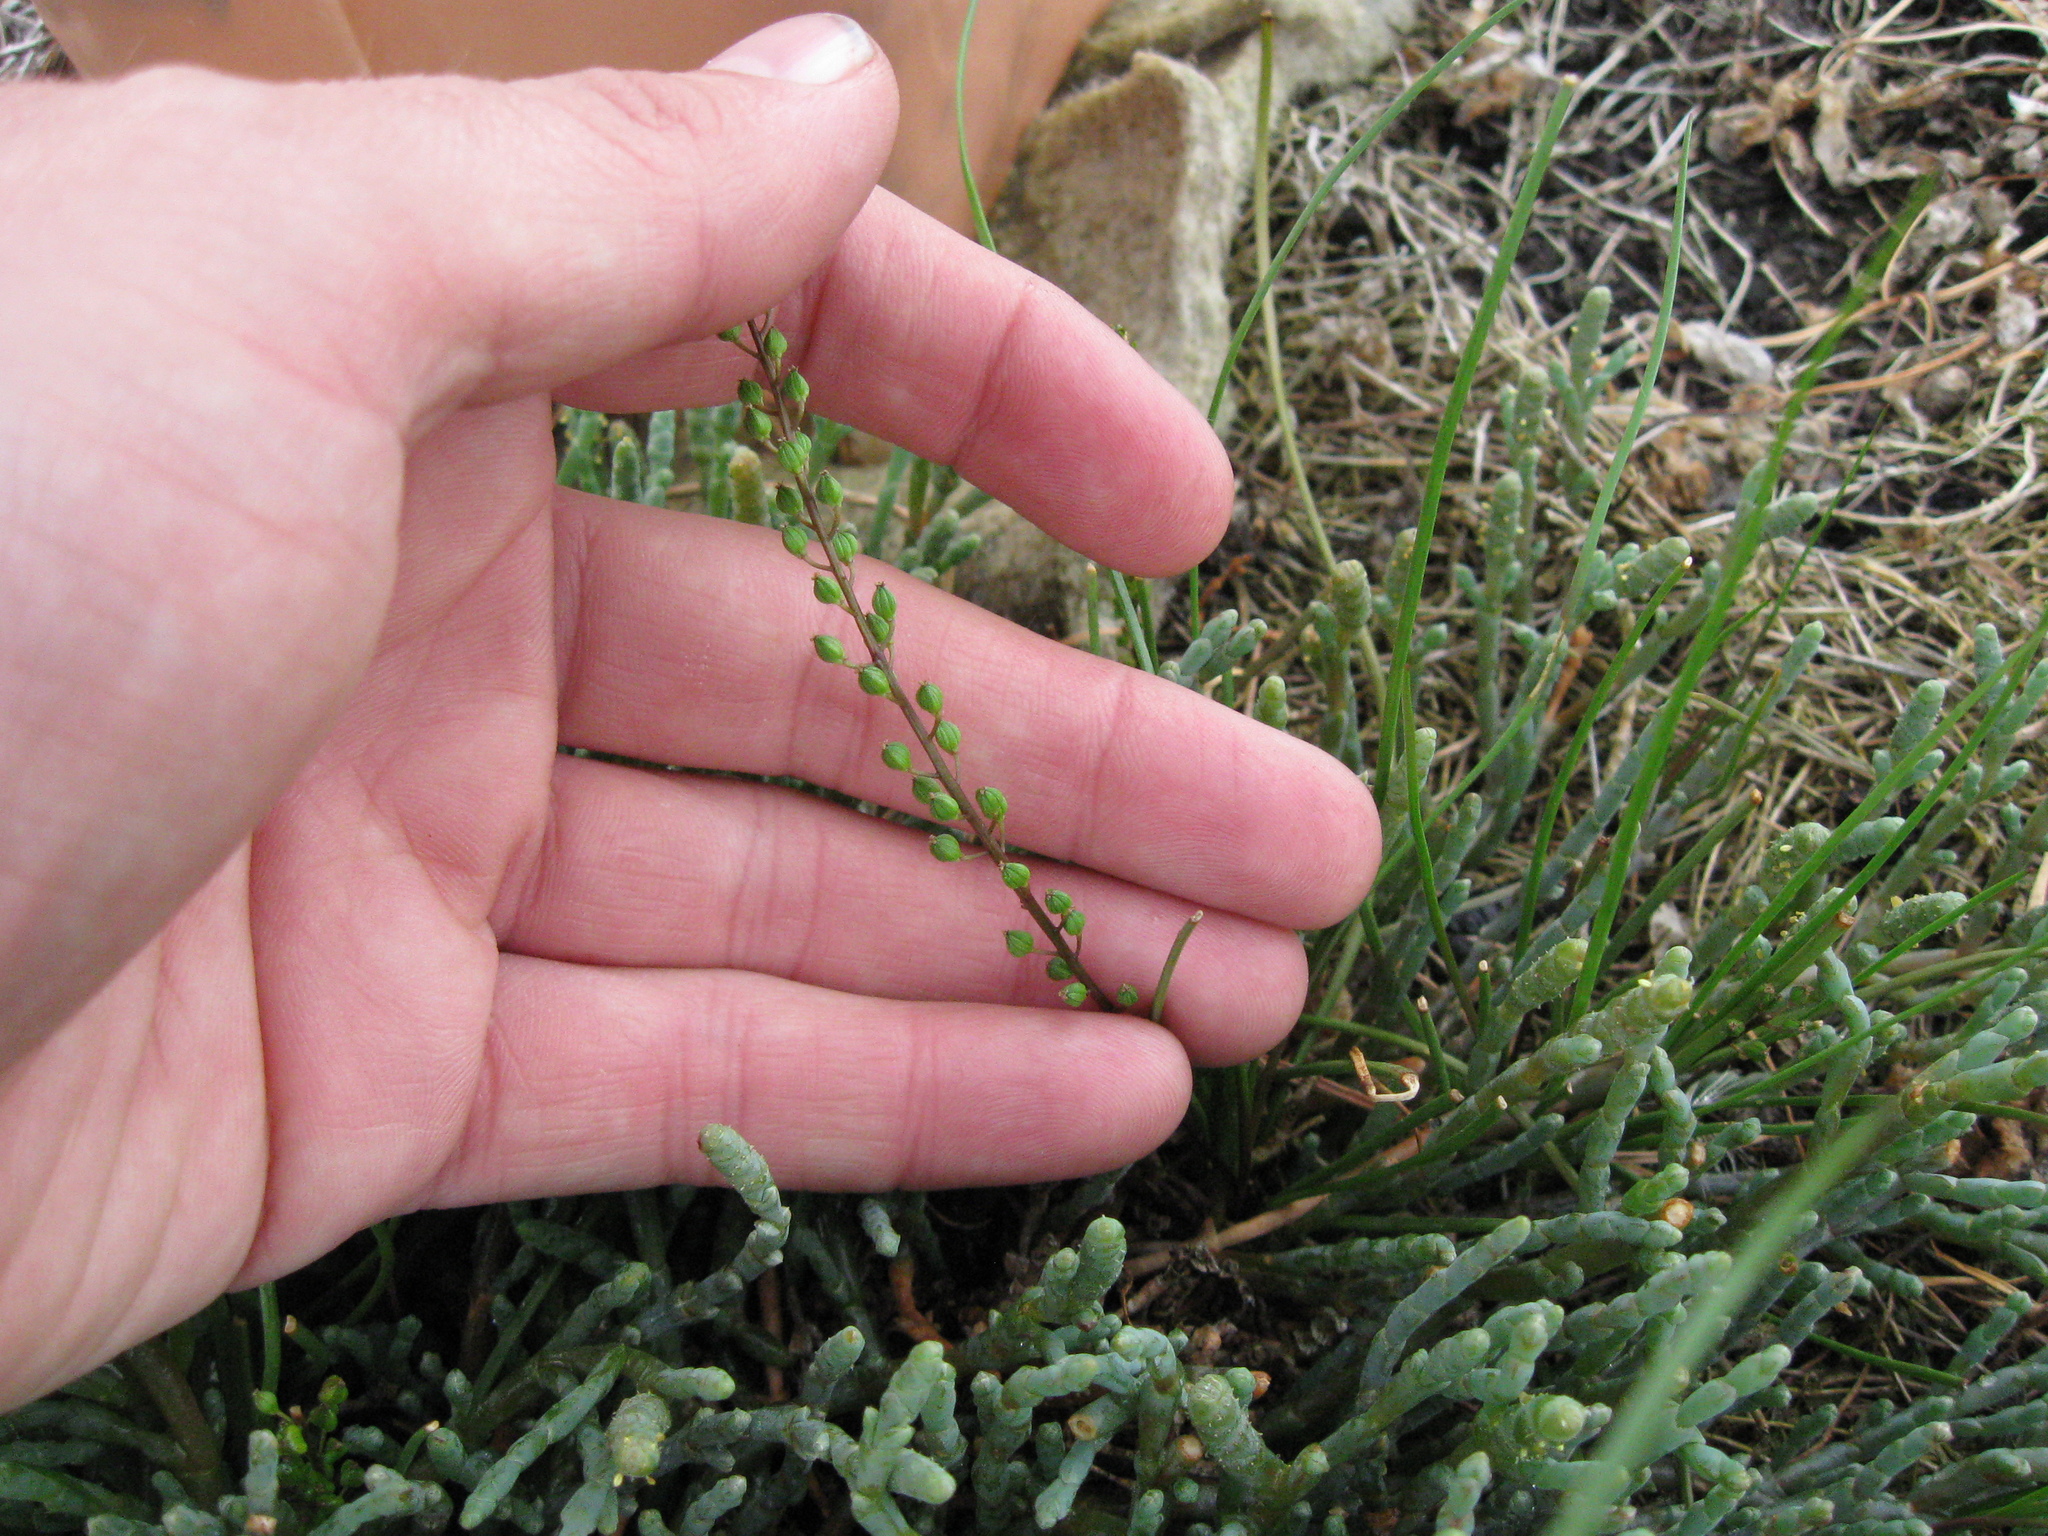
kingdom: Plantae
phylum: Tracheophyta
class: Liliopsida
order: Alismatales
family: Juncaginaceae
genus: Triglochin
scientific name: Triglochin striata
